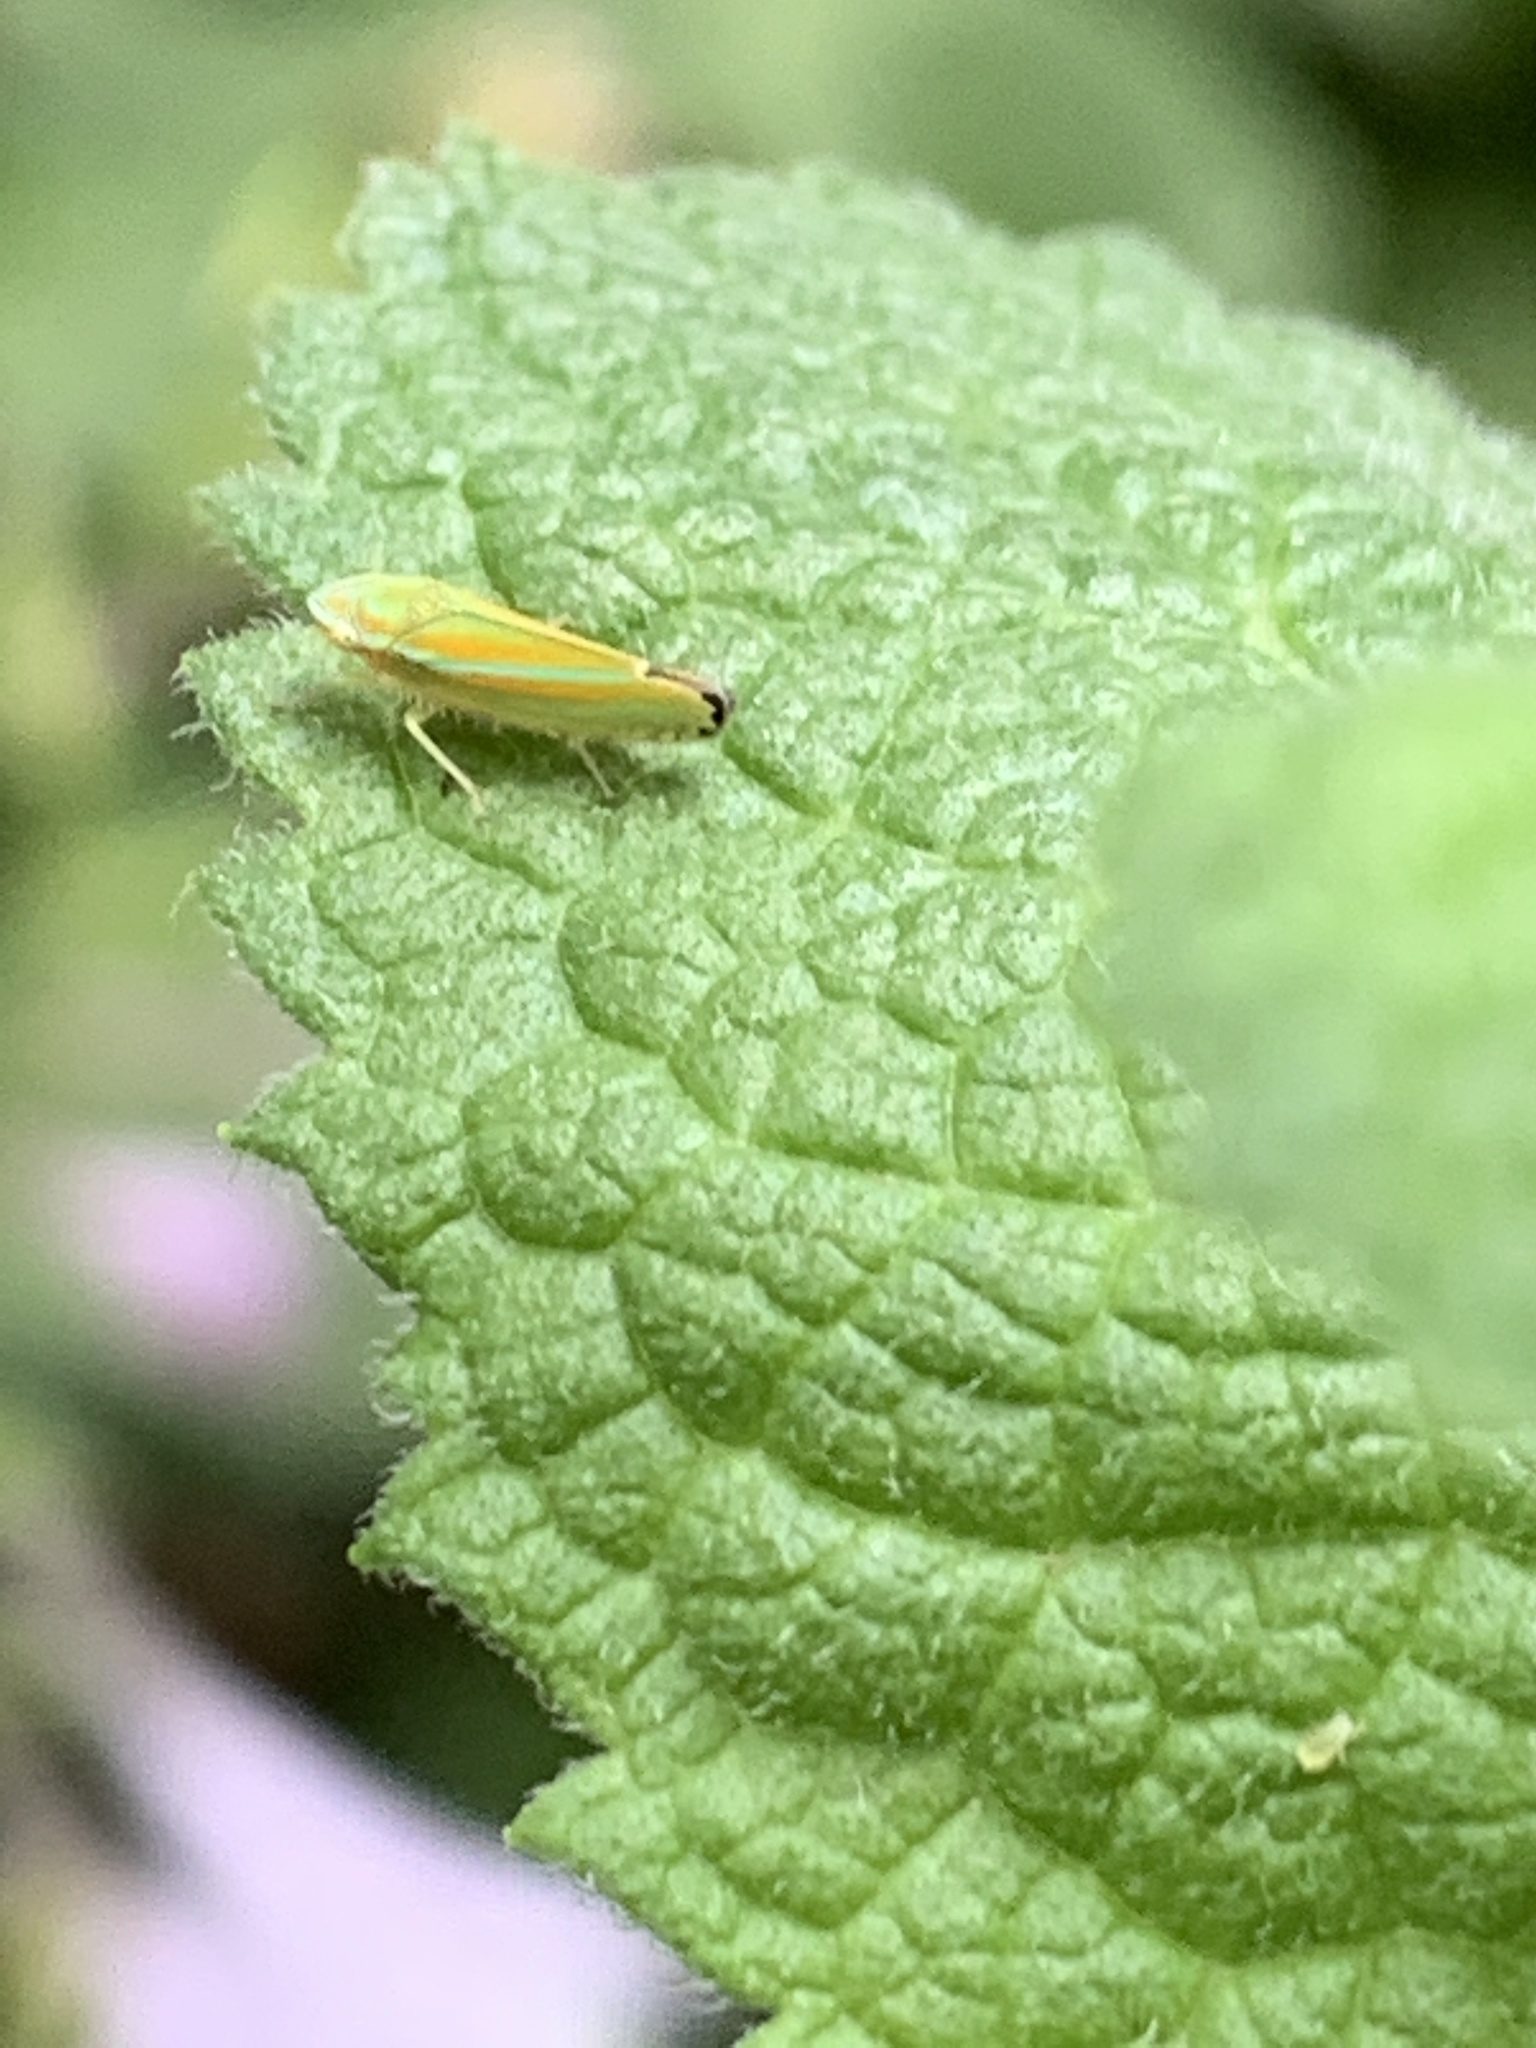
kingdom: Animalia
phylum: Arthropoda
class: Insecta
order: Hemiptera
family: Cicadellidae
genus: Graphocephala
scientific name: Graphocephala versuta
